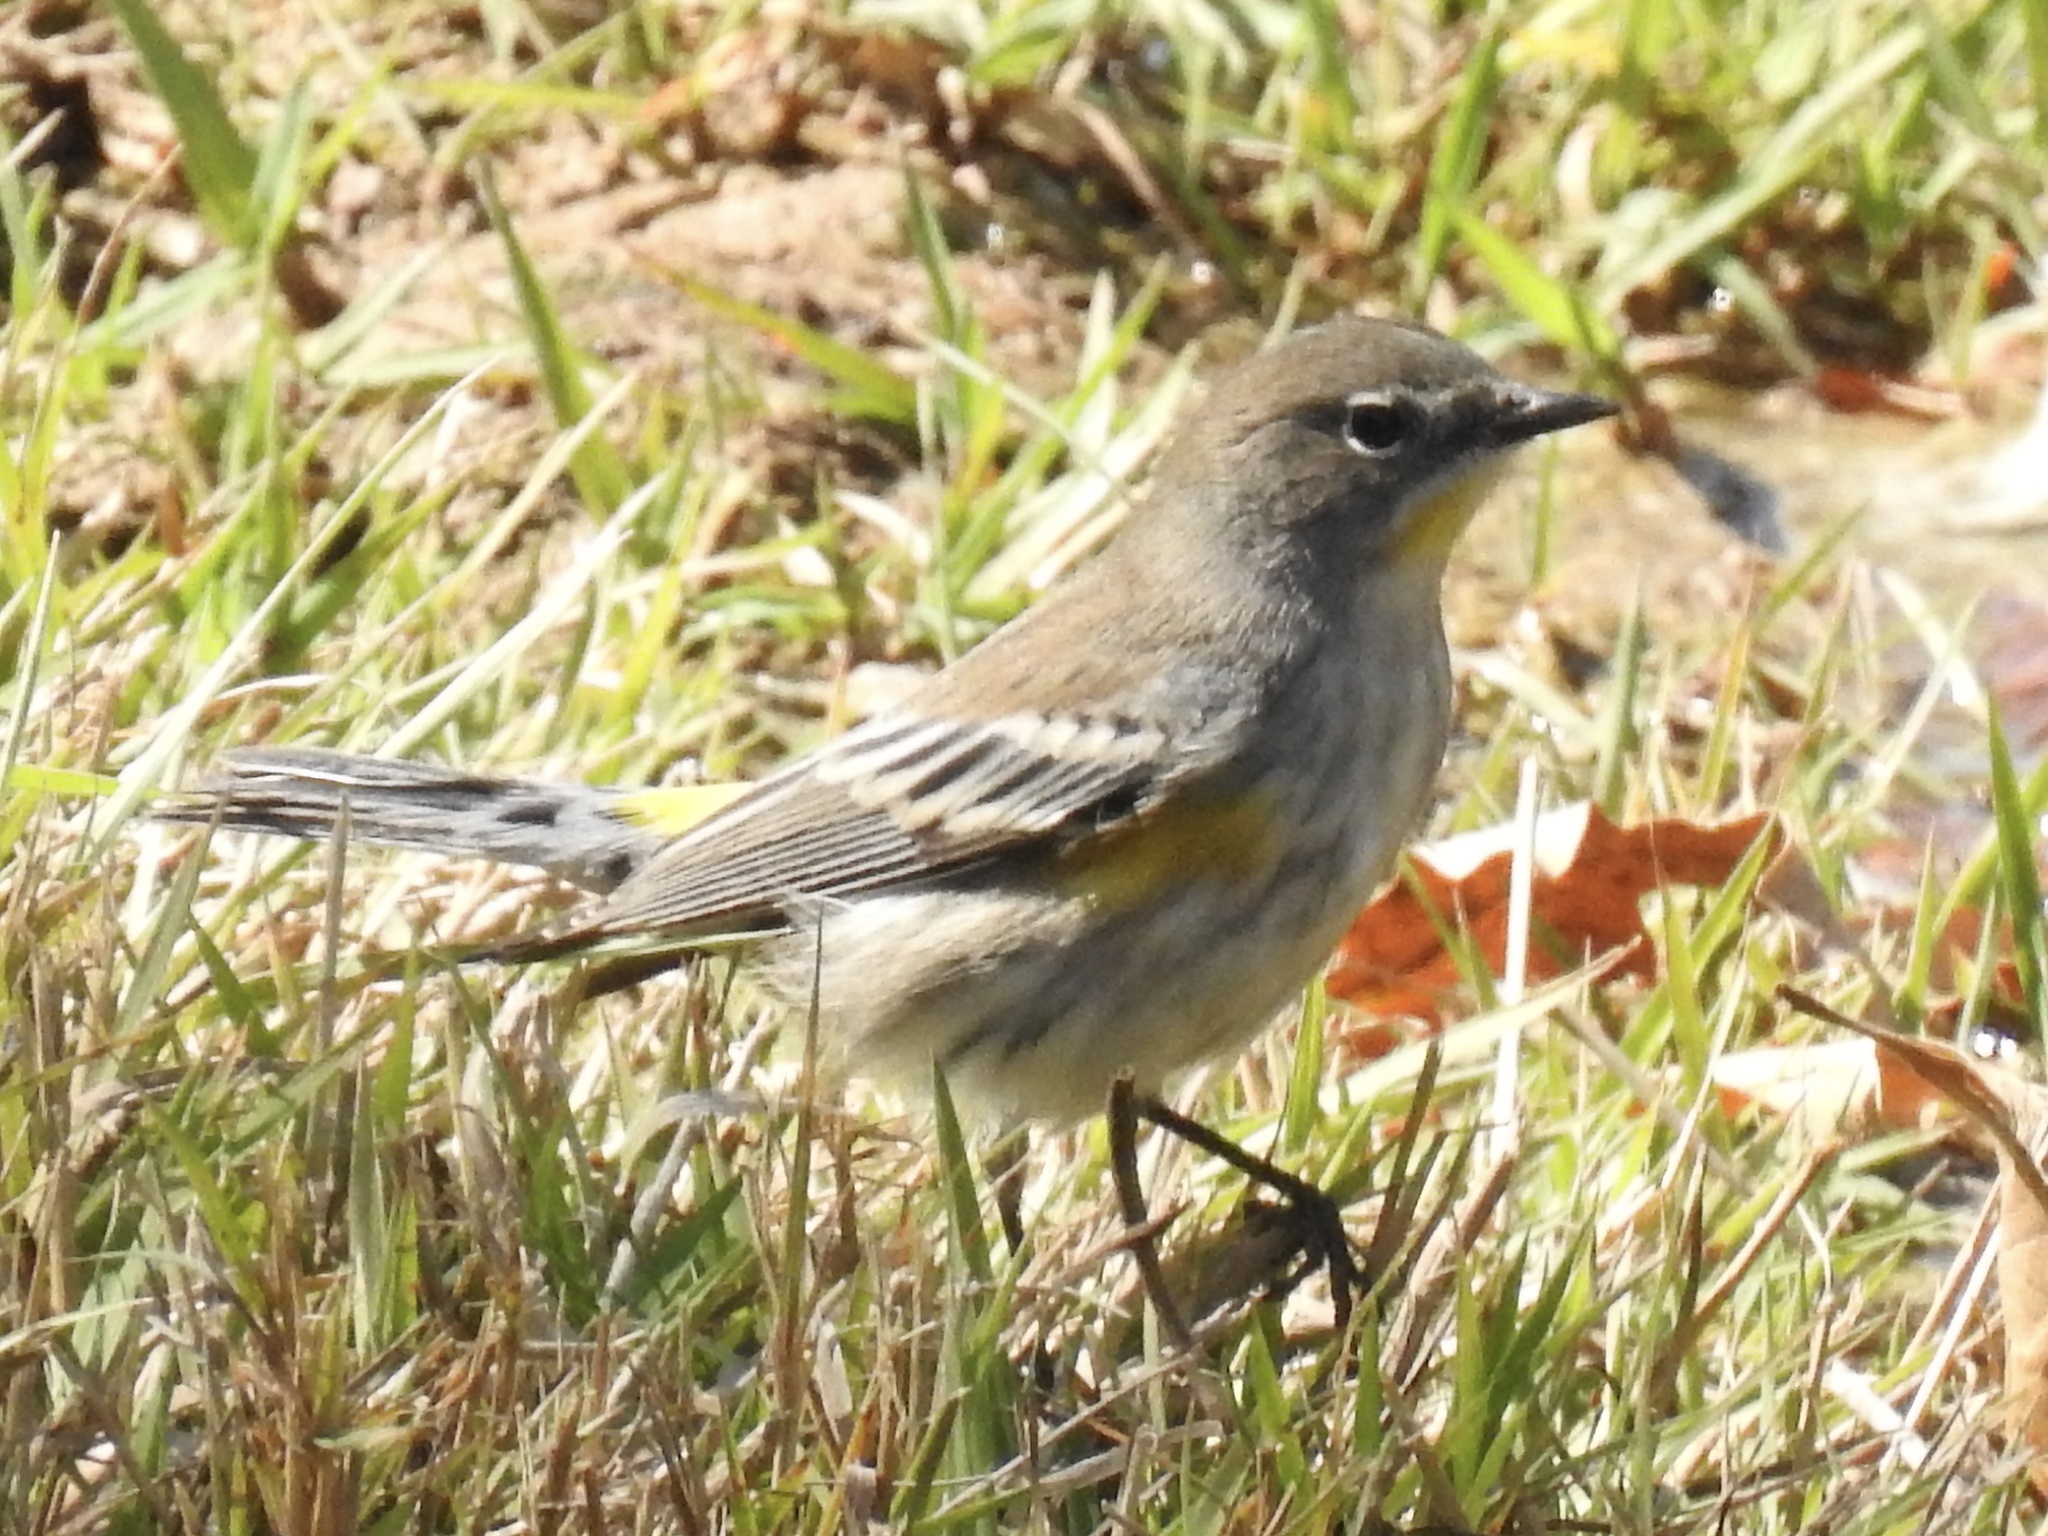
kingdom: Animalia
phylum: Chordata
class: Aves
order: Passeriformes
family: Parulidae
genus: Setophaga
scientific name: Setophaga coronata
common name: Myrtle warbler
